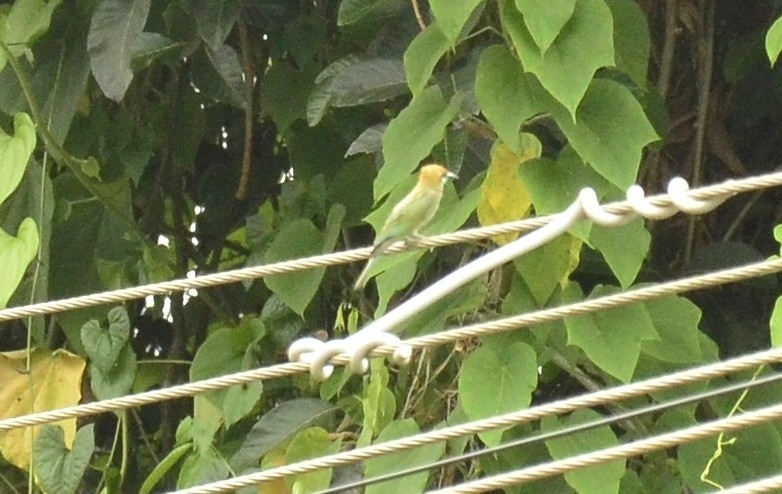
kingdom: Animalia
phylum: Chordata
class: Aves
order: Coraciiformes
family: Meropidae
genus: Merops
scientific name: Merops orientalis
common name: Green bee-eater
